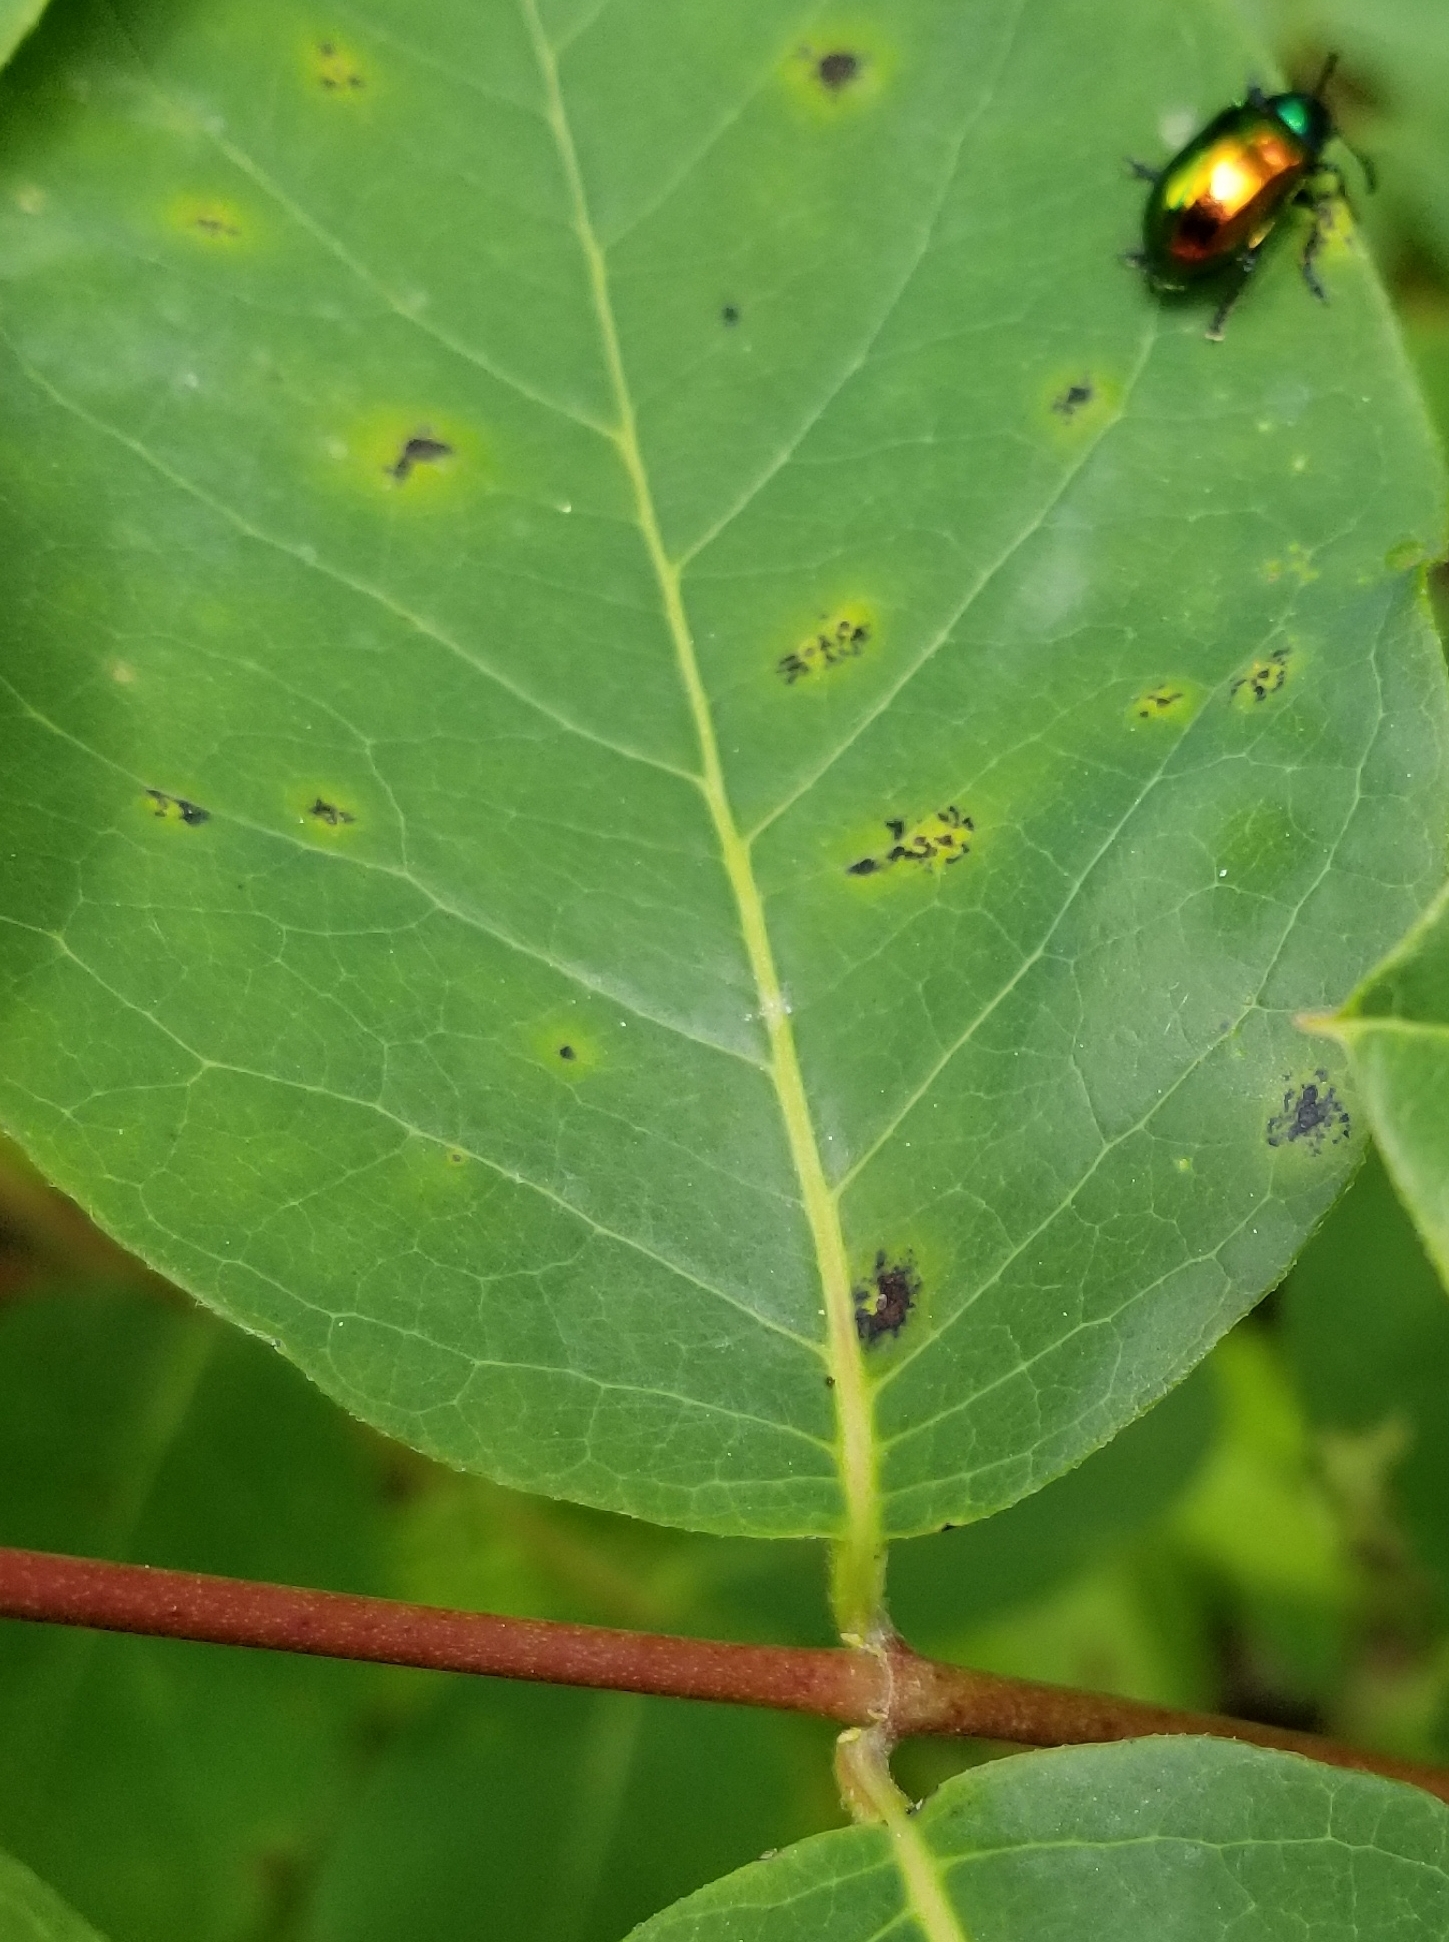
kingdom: Animalia
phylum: Arthropoda
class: Insecta
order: Coleoptera
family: Chrysomelidae
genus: Chrysochus
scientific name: Chrysochus auratus
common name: Dogbane leaf beetle
